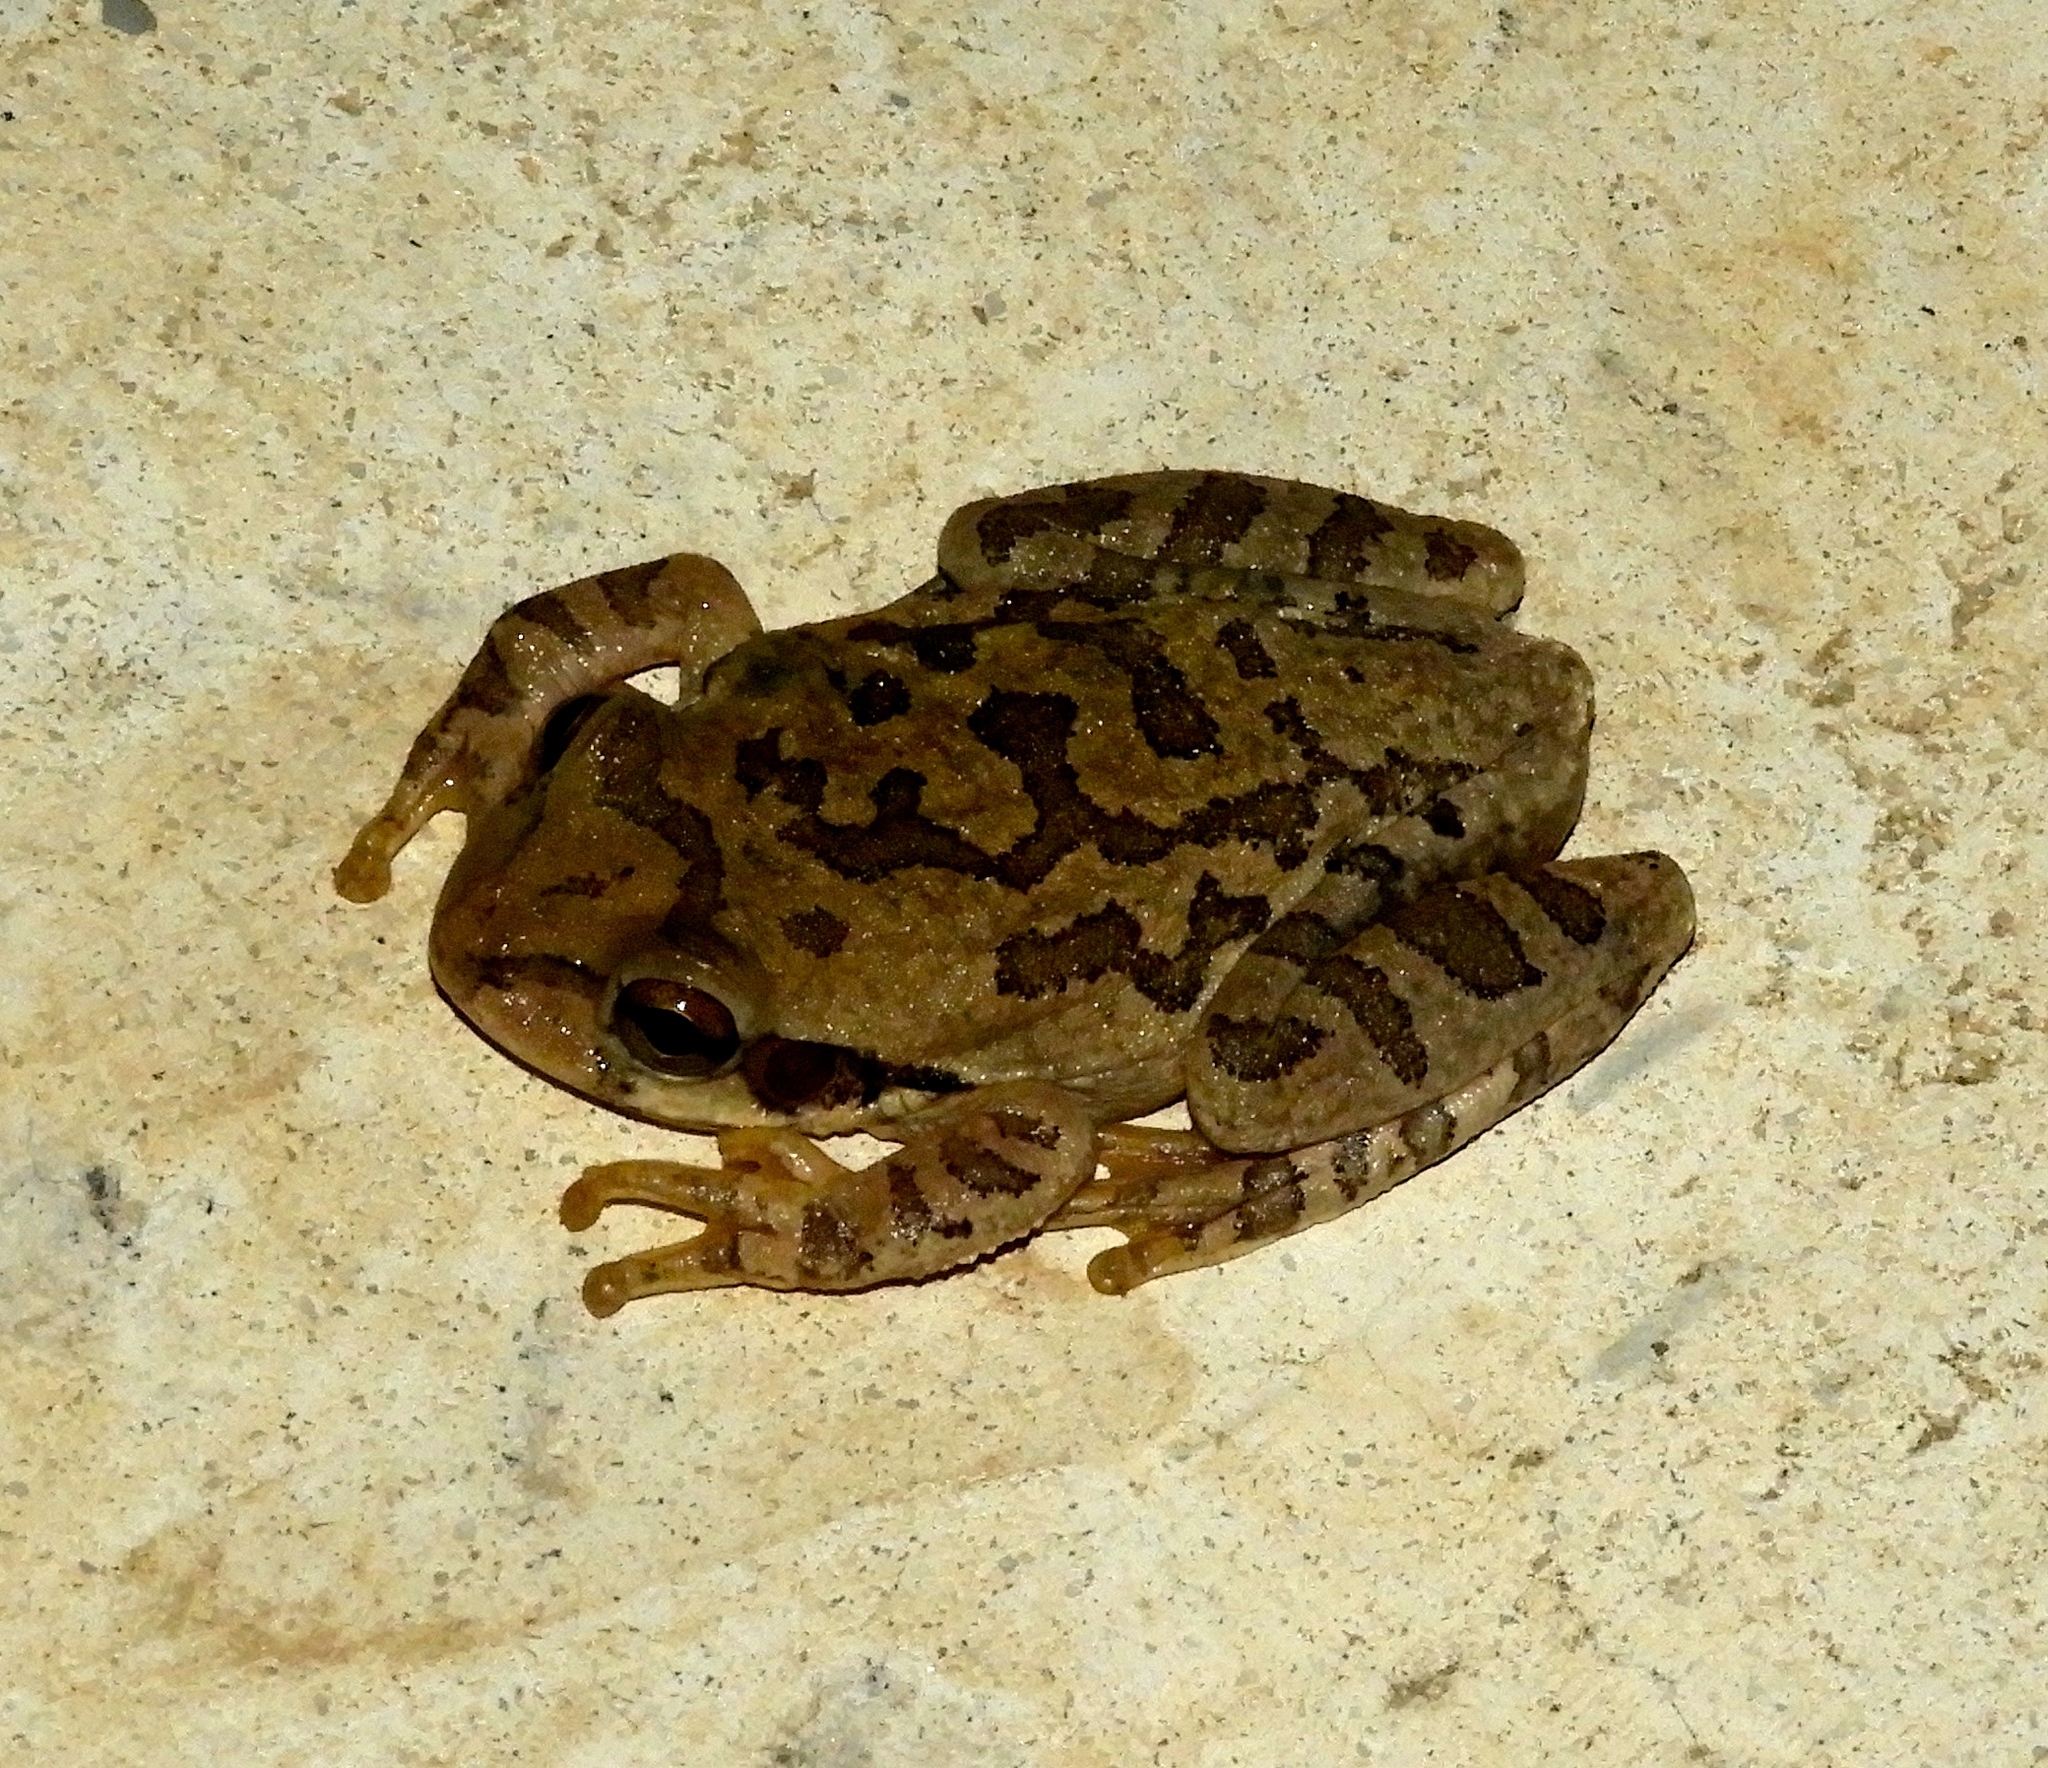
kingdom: Animalia
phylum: Chordata
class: Amphibia
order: Anura
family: Hylidae
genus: Smilisca
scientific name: Smilisca baudinii
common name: Mexican smilisca
